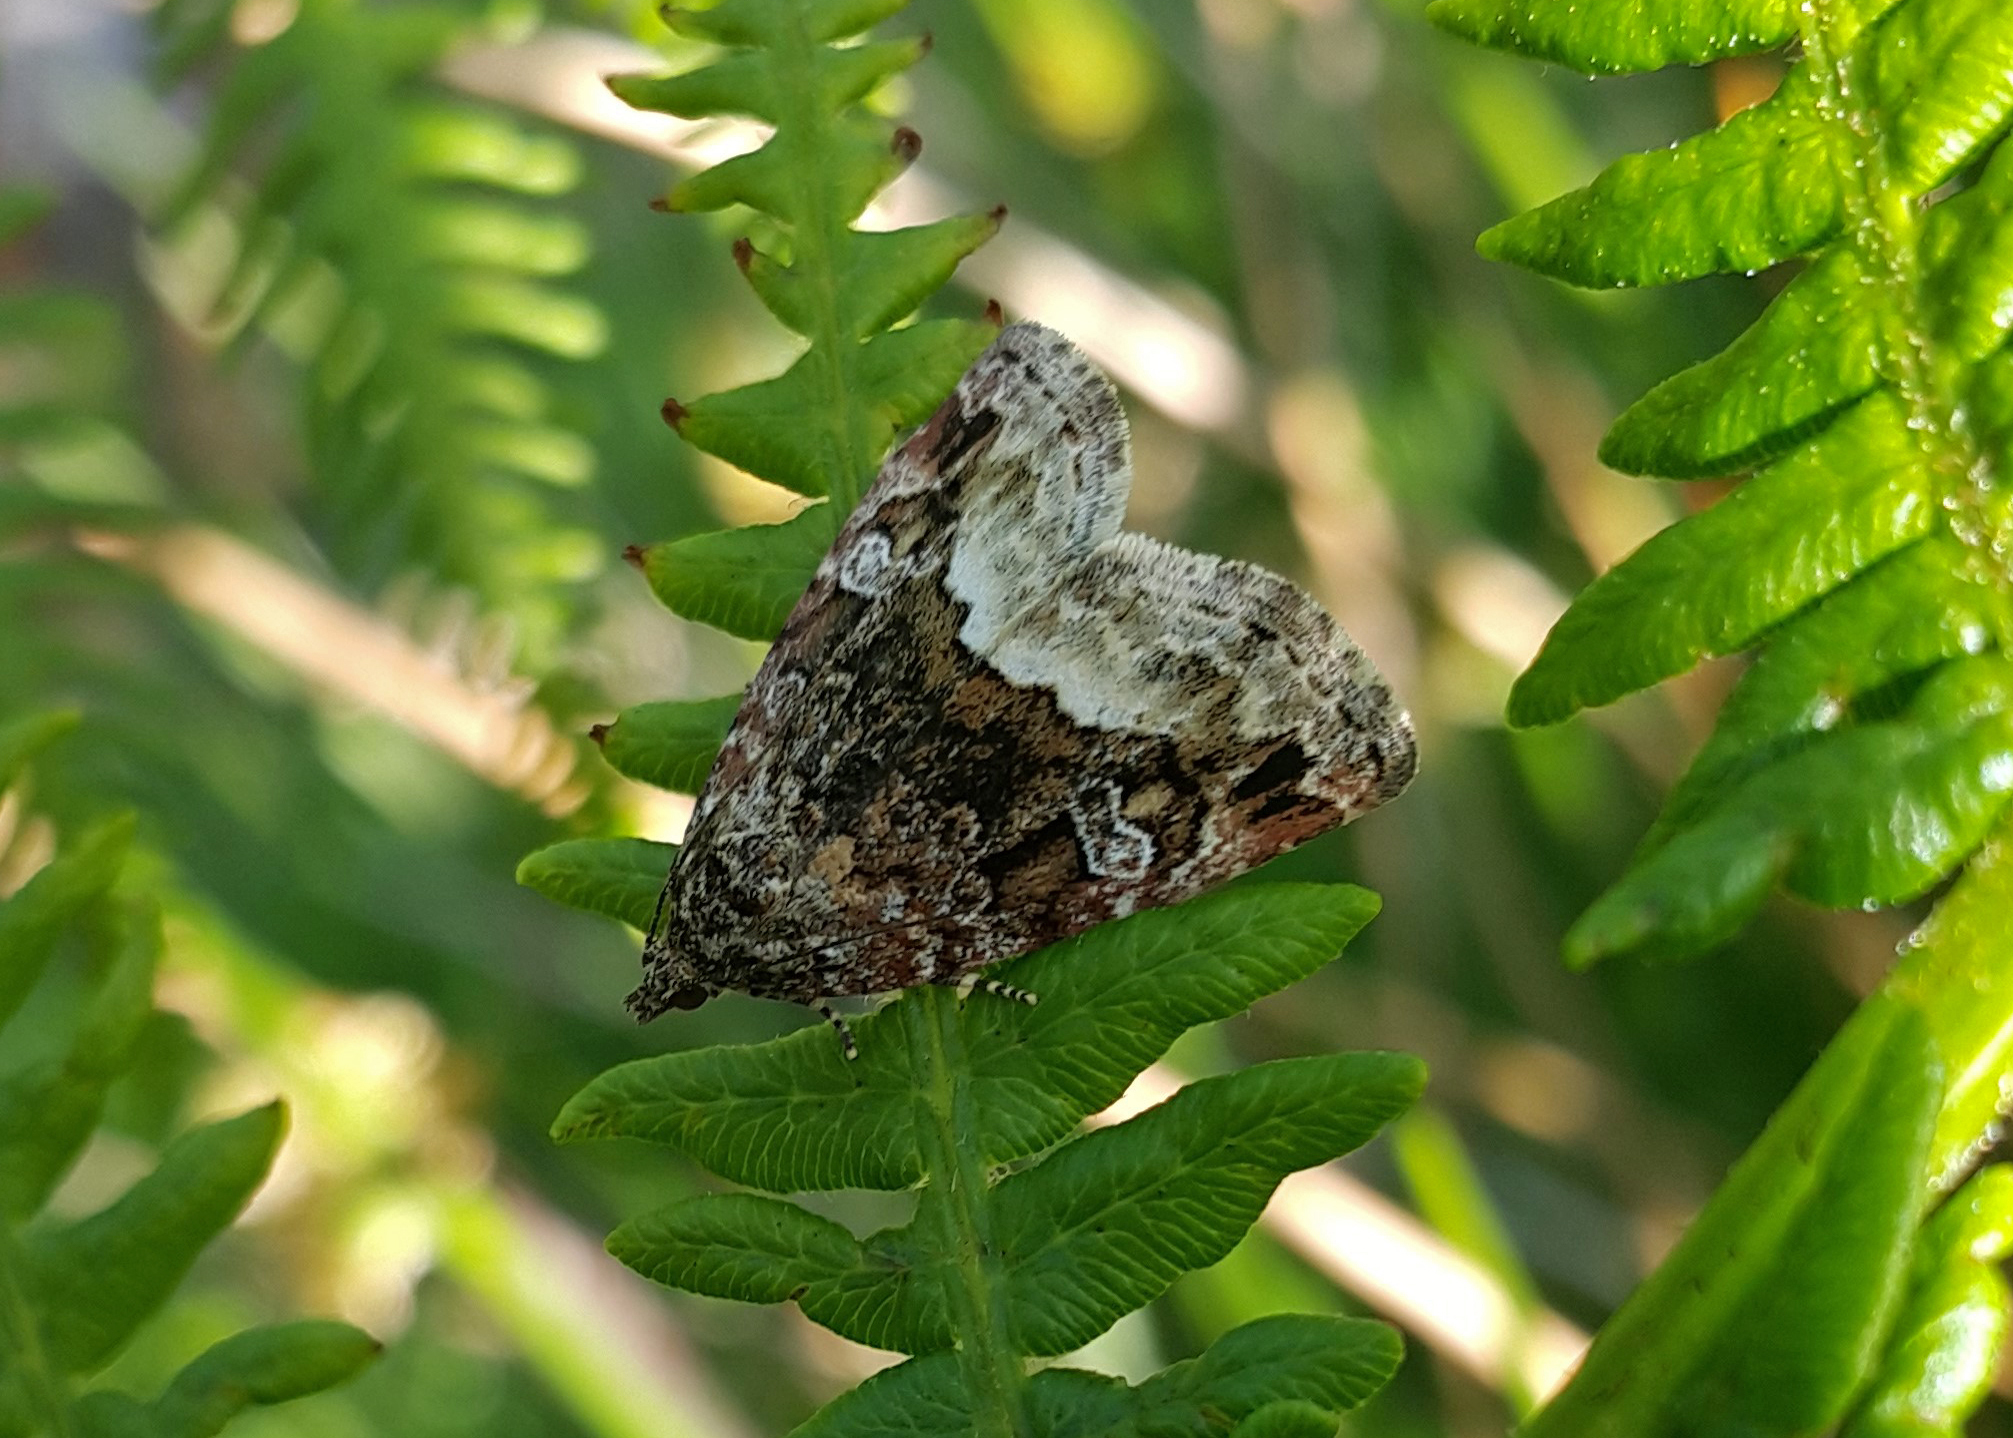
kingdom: Animalia
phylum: Arthropoda
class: Insecta
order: Lepidoptera
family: Noctuidae
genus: Deltote
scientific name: Deltote pygarga
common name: Marbled white spot
